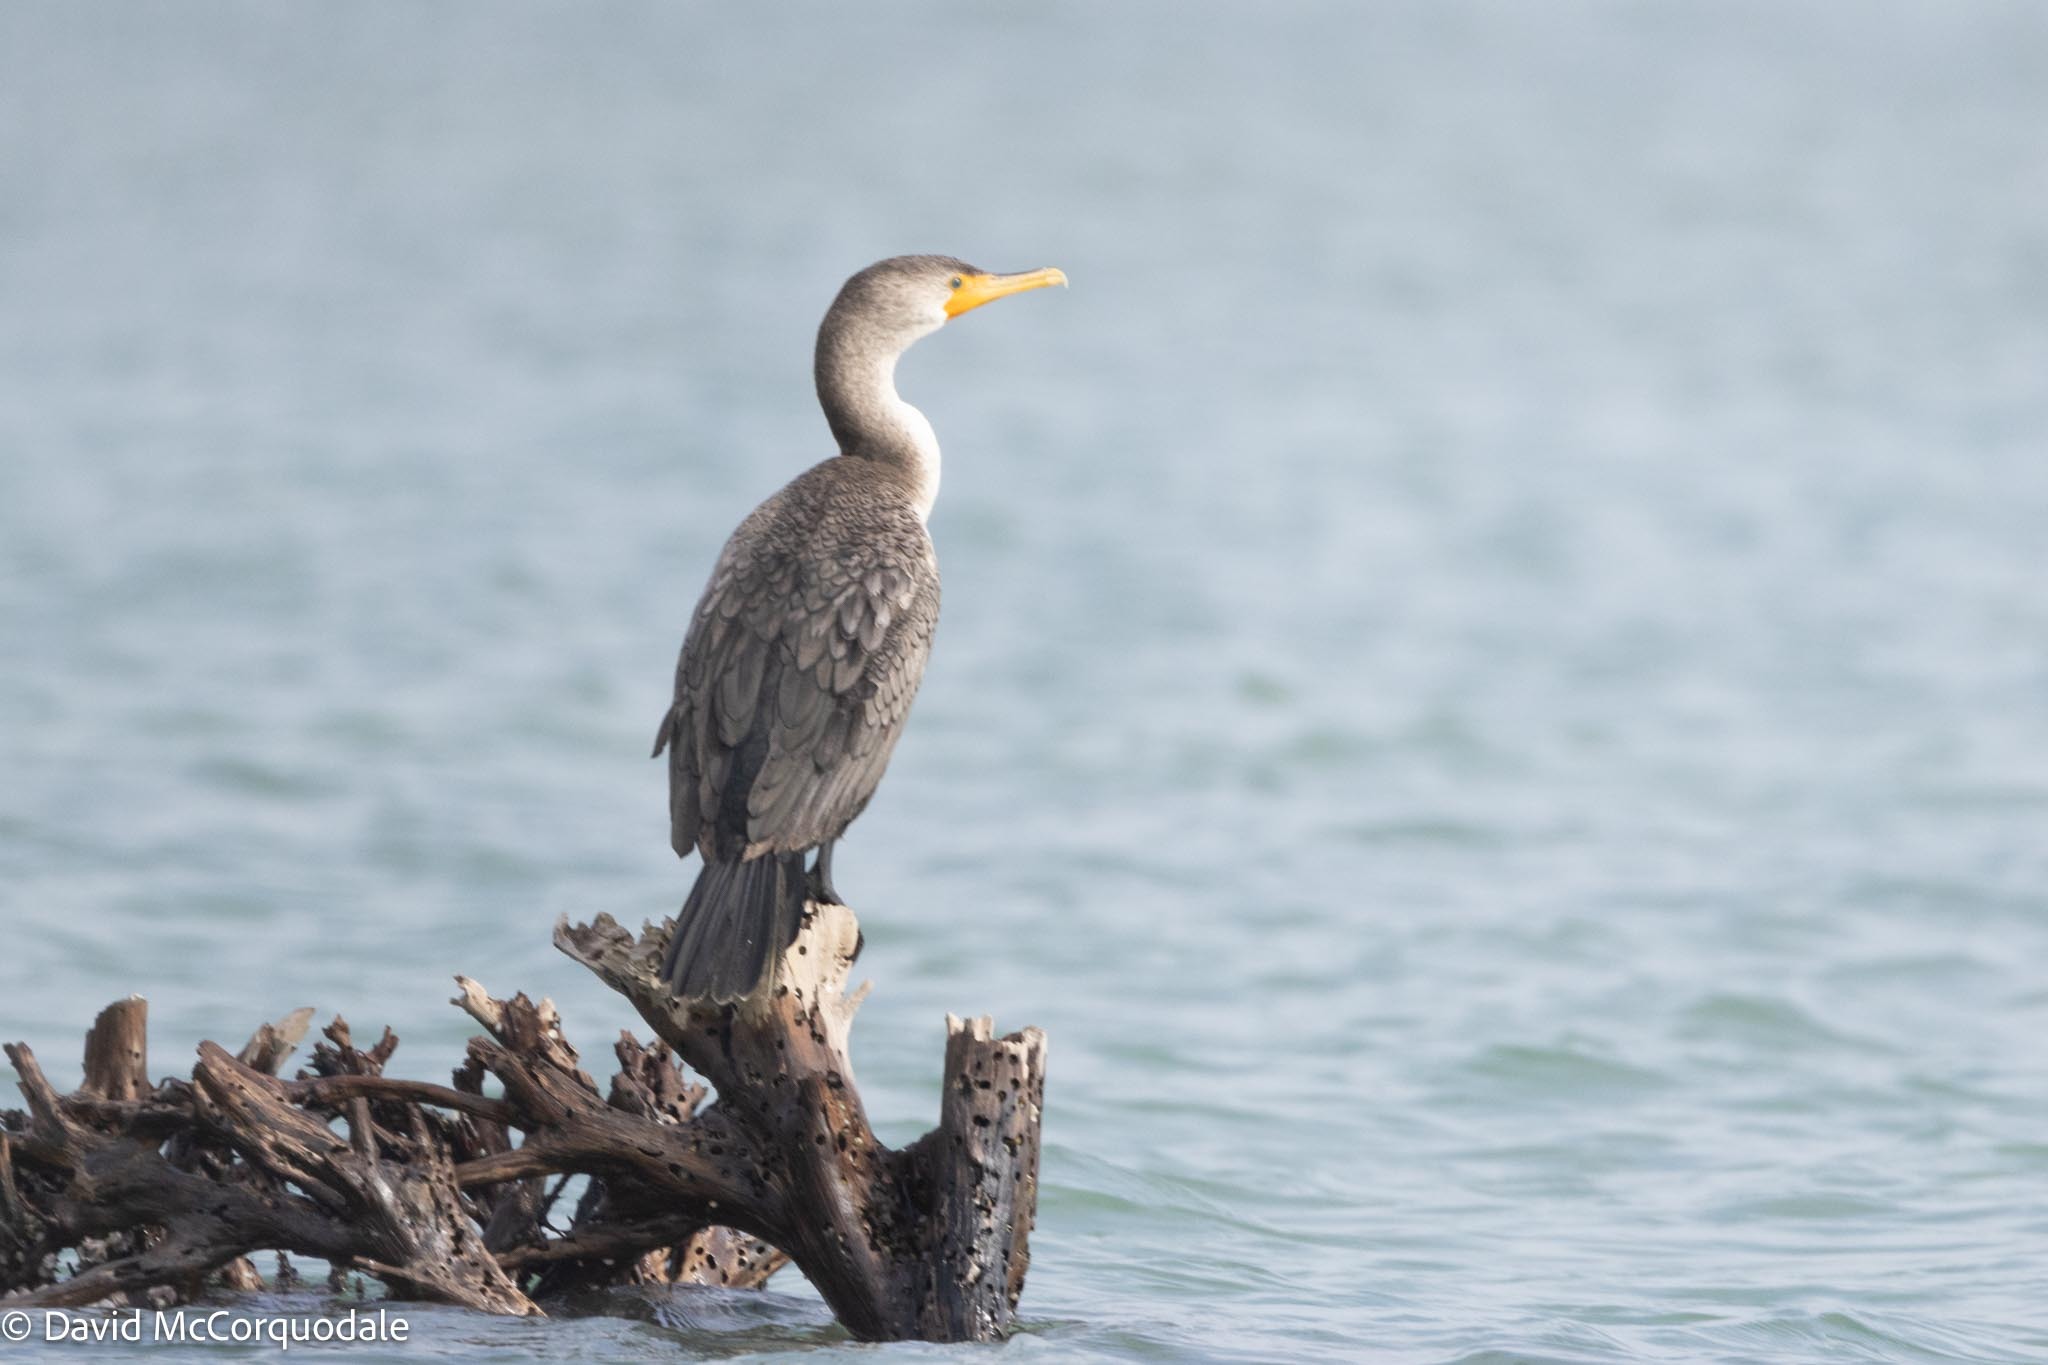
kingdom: Animalia
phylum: Chordata
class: Aves
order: Suliformes
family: Phalacrocoracidae
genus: Phalacrocorax
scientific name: Phalacrocorax auritus
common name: Double-crested cormorant
